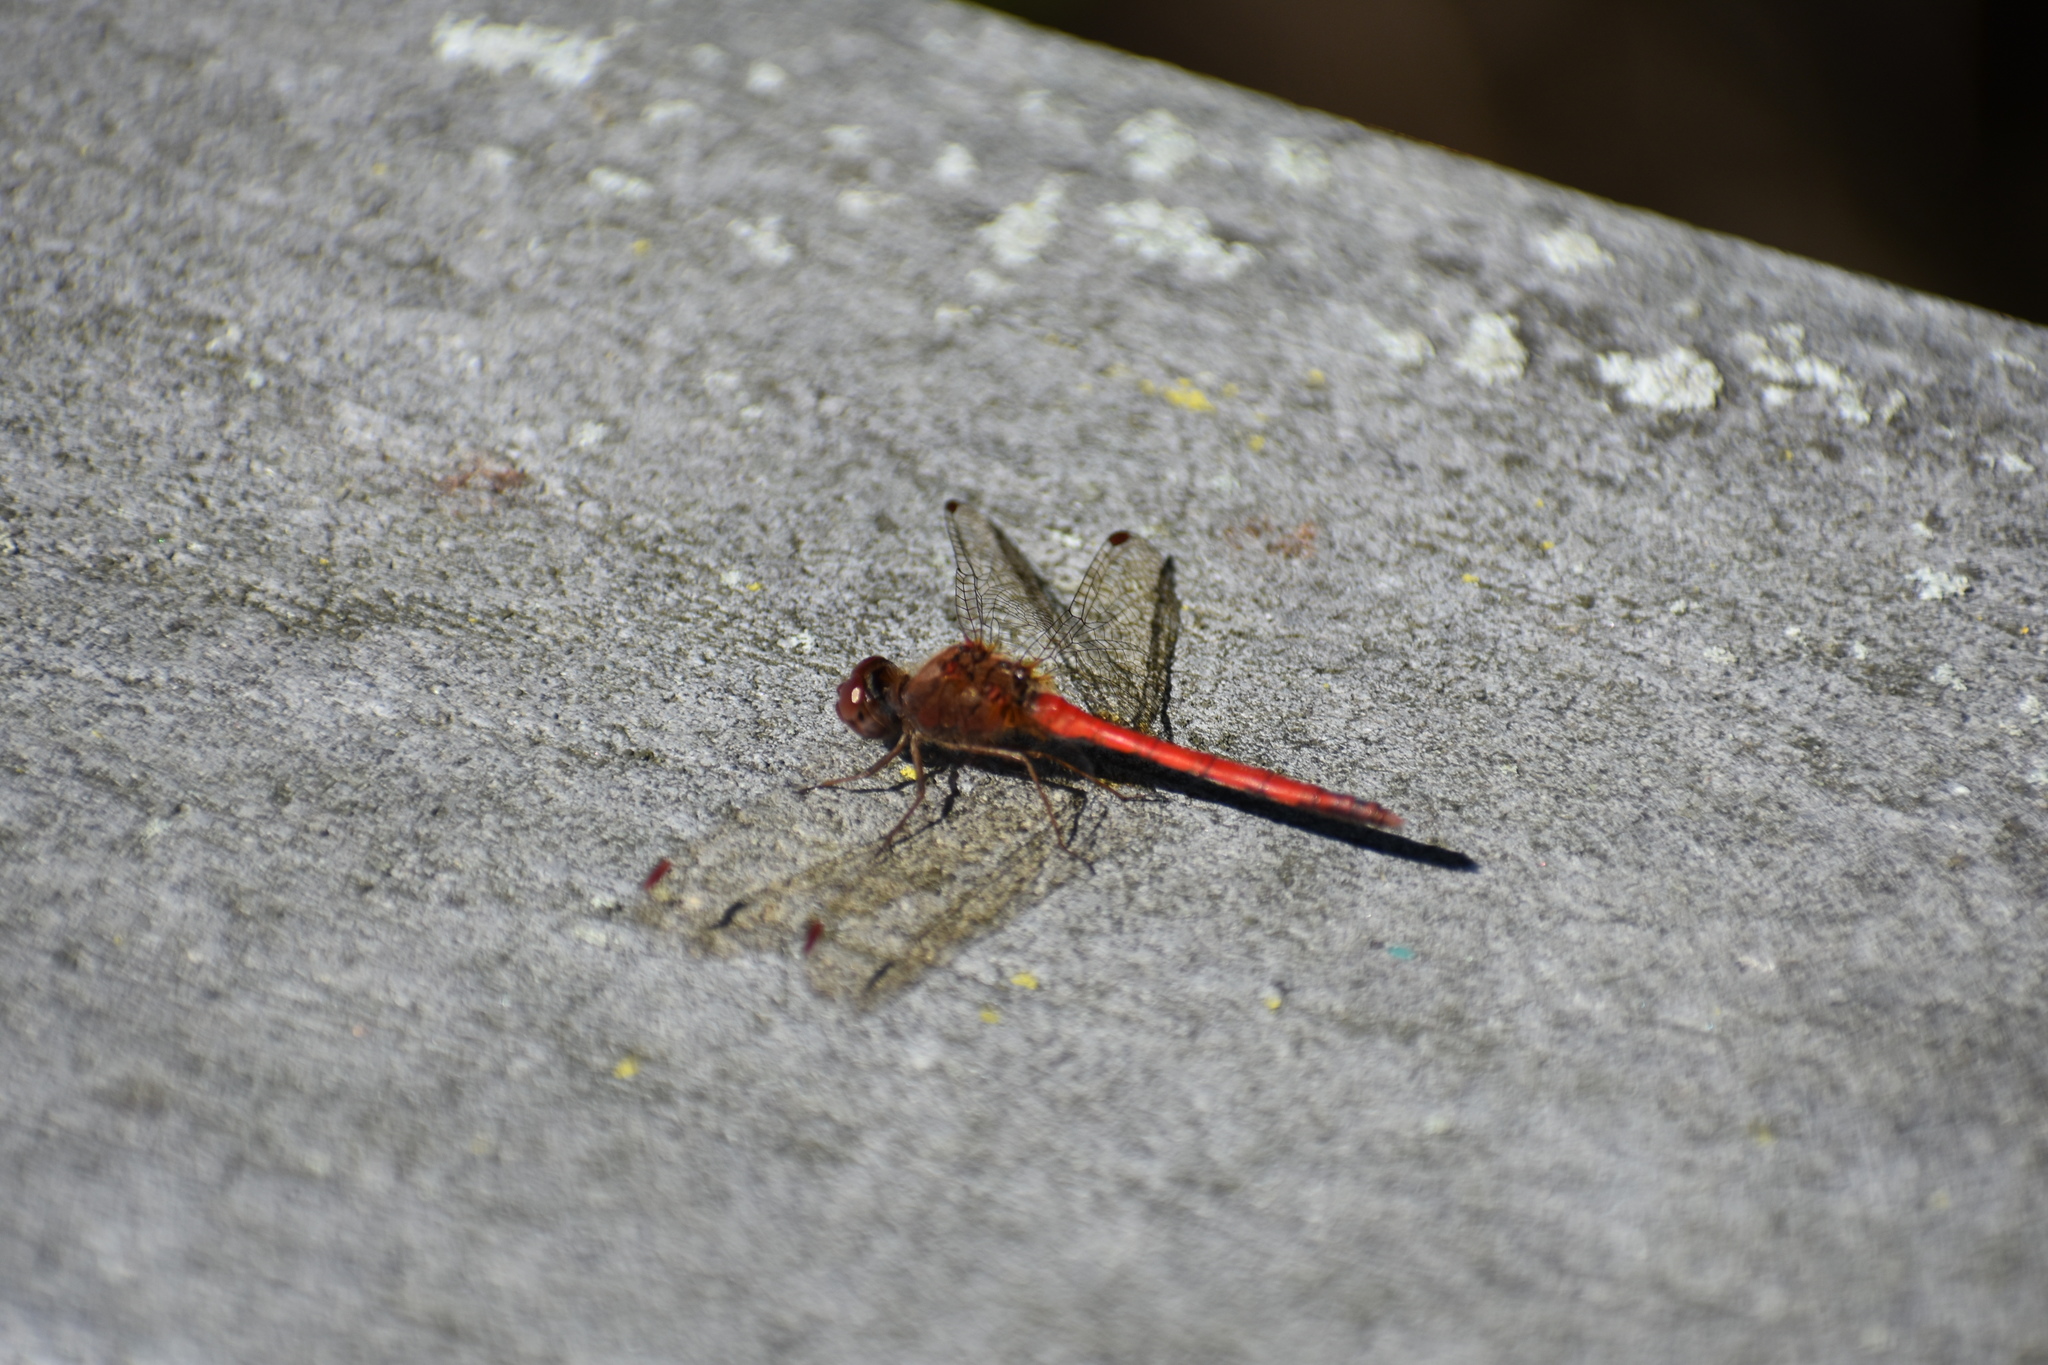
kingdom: Animalia
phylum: Arthropoda
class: Insecta
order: Odonata
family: Libellulidae
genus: Sympetrum
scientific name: Sympetrum vicinum
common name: Autumn meadowhawk
